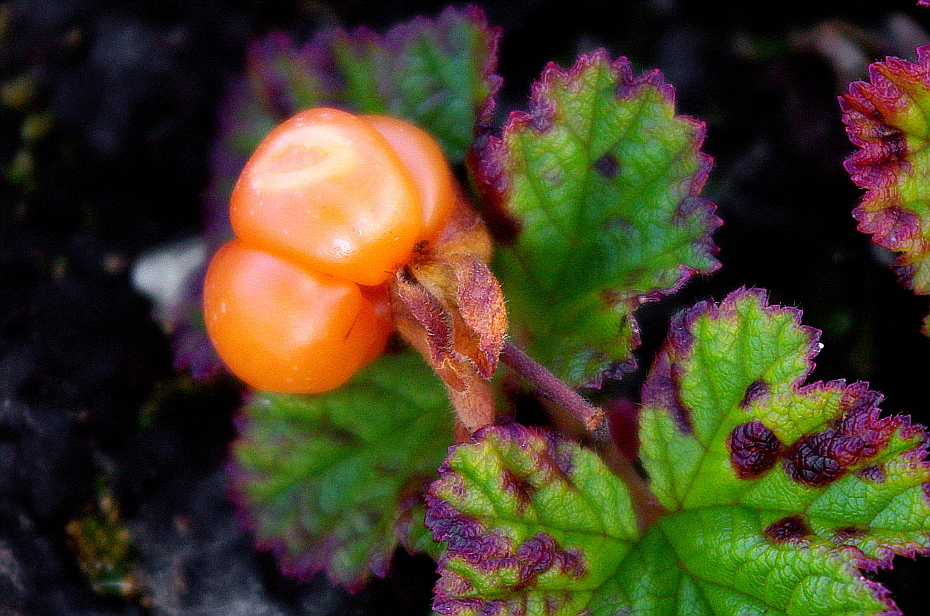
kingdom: Plantae
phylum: Tracheophyta
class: Magnoliopsida
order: Rosales
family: Rosaceae
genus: Rubus
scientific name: Rubus chamaemorus
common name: Cloudberry
